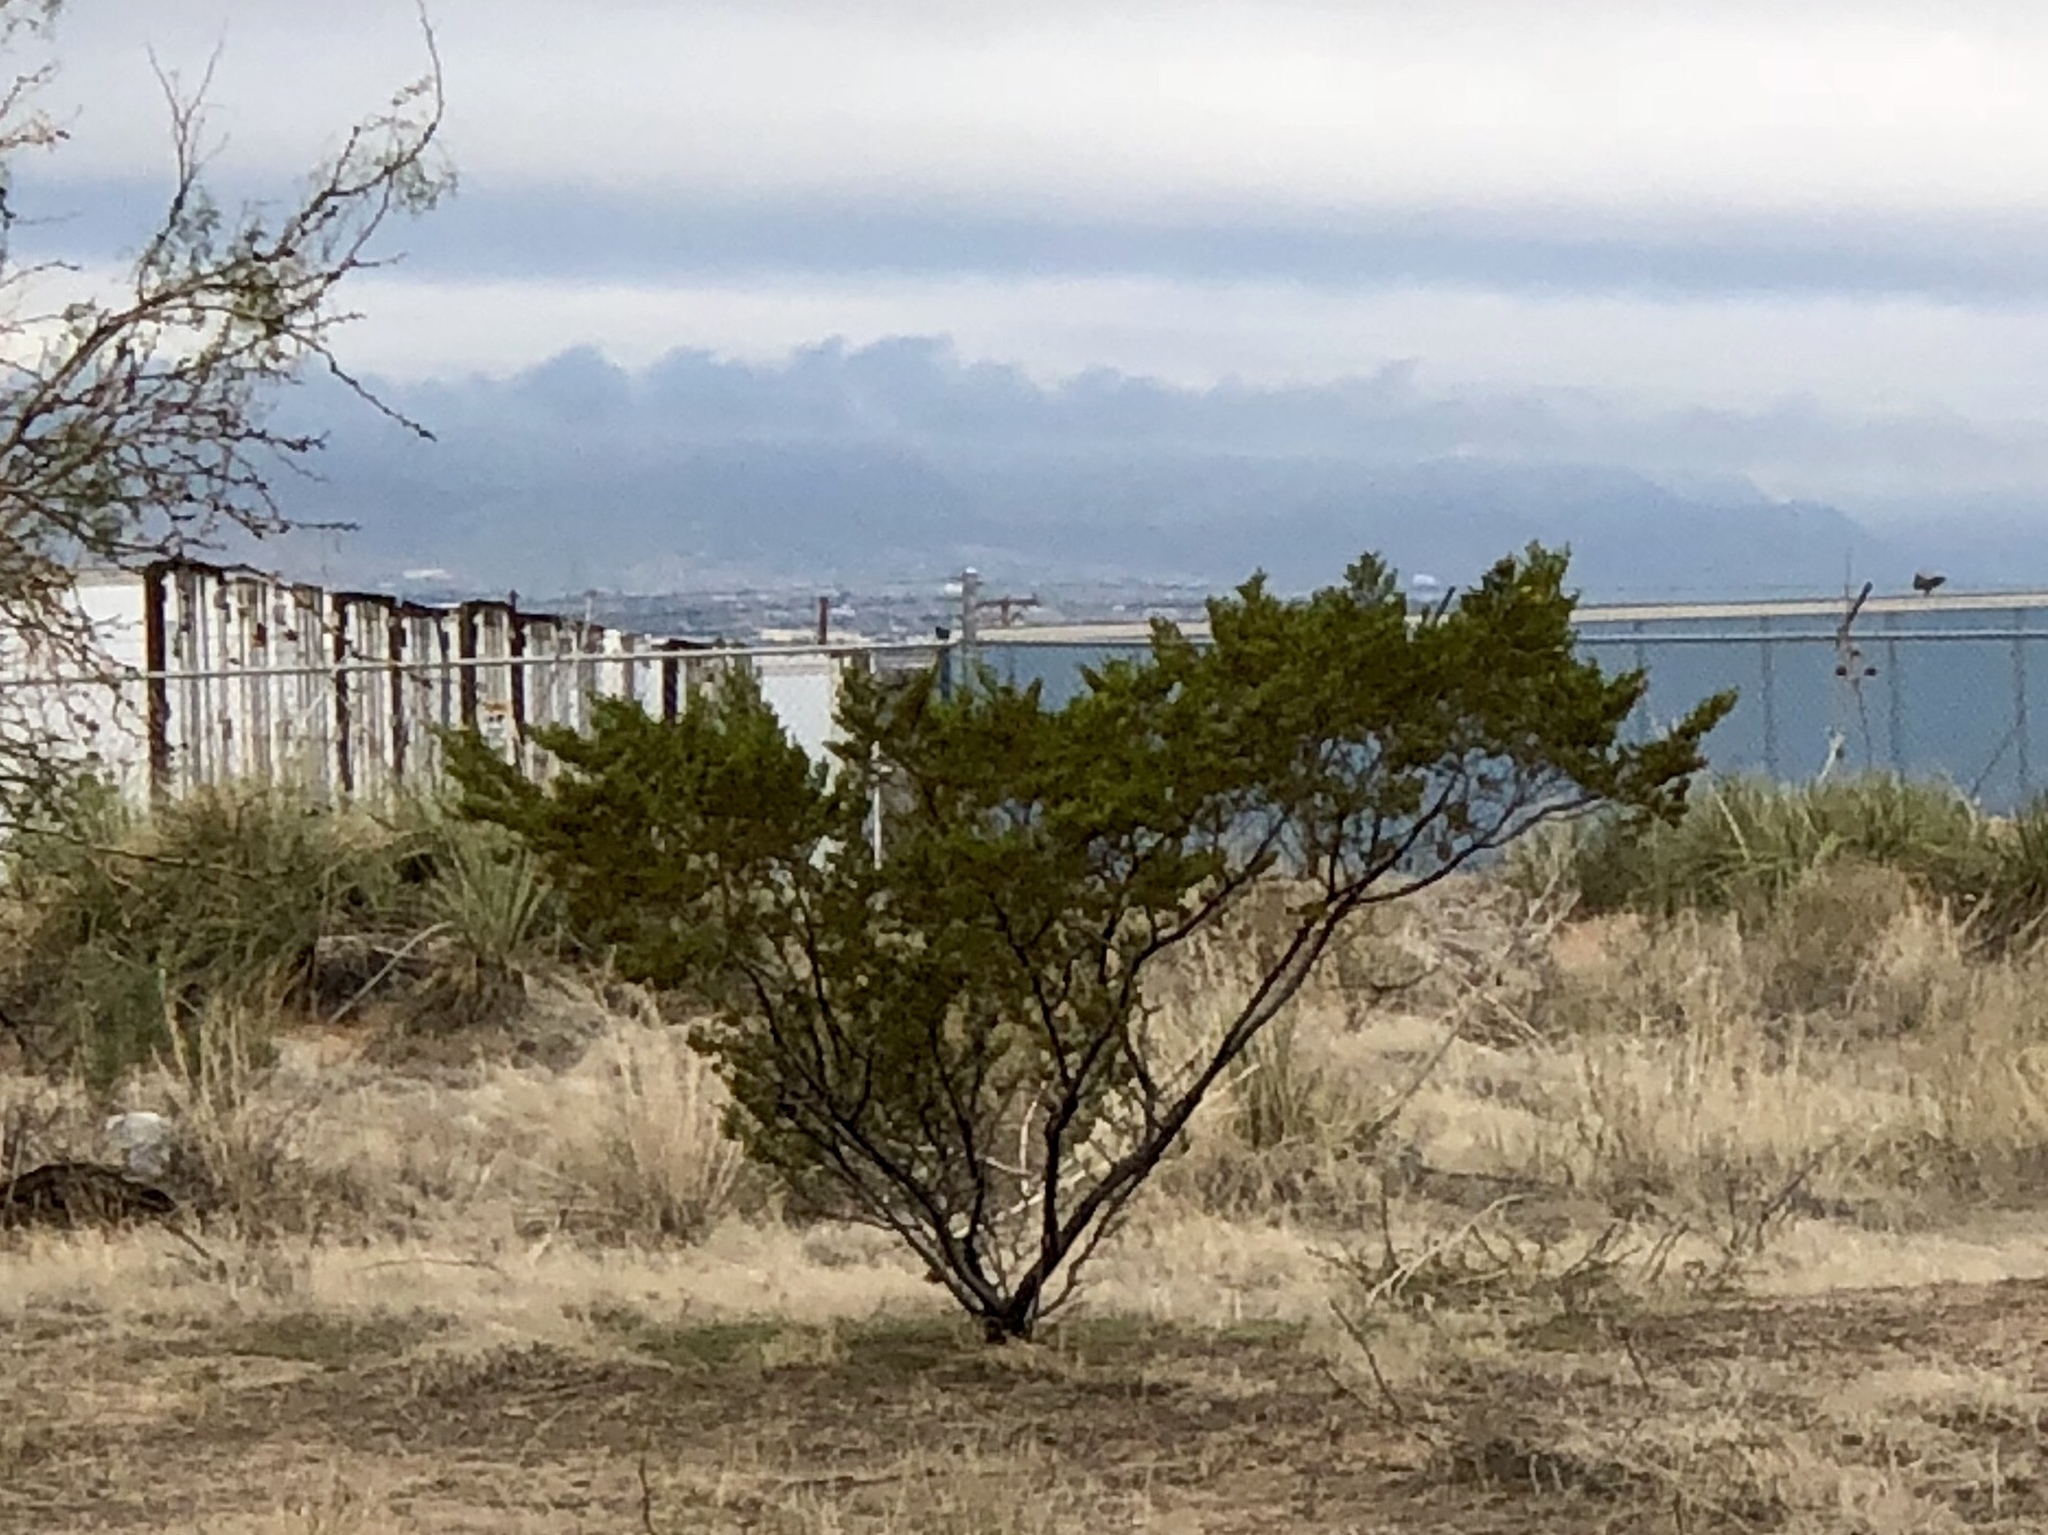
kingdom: Plantae
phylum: Tracheophyta
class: Magnoliopsida
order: Zygophyllales
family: Zygophyllaceae
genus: Larrea
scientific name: Larrea tridentata
